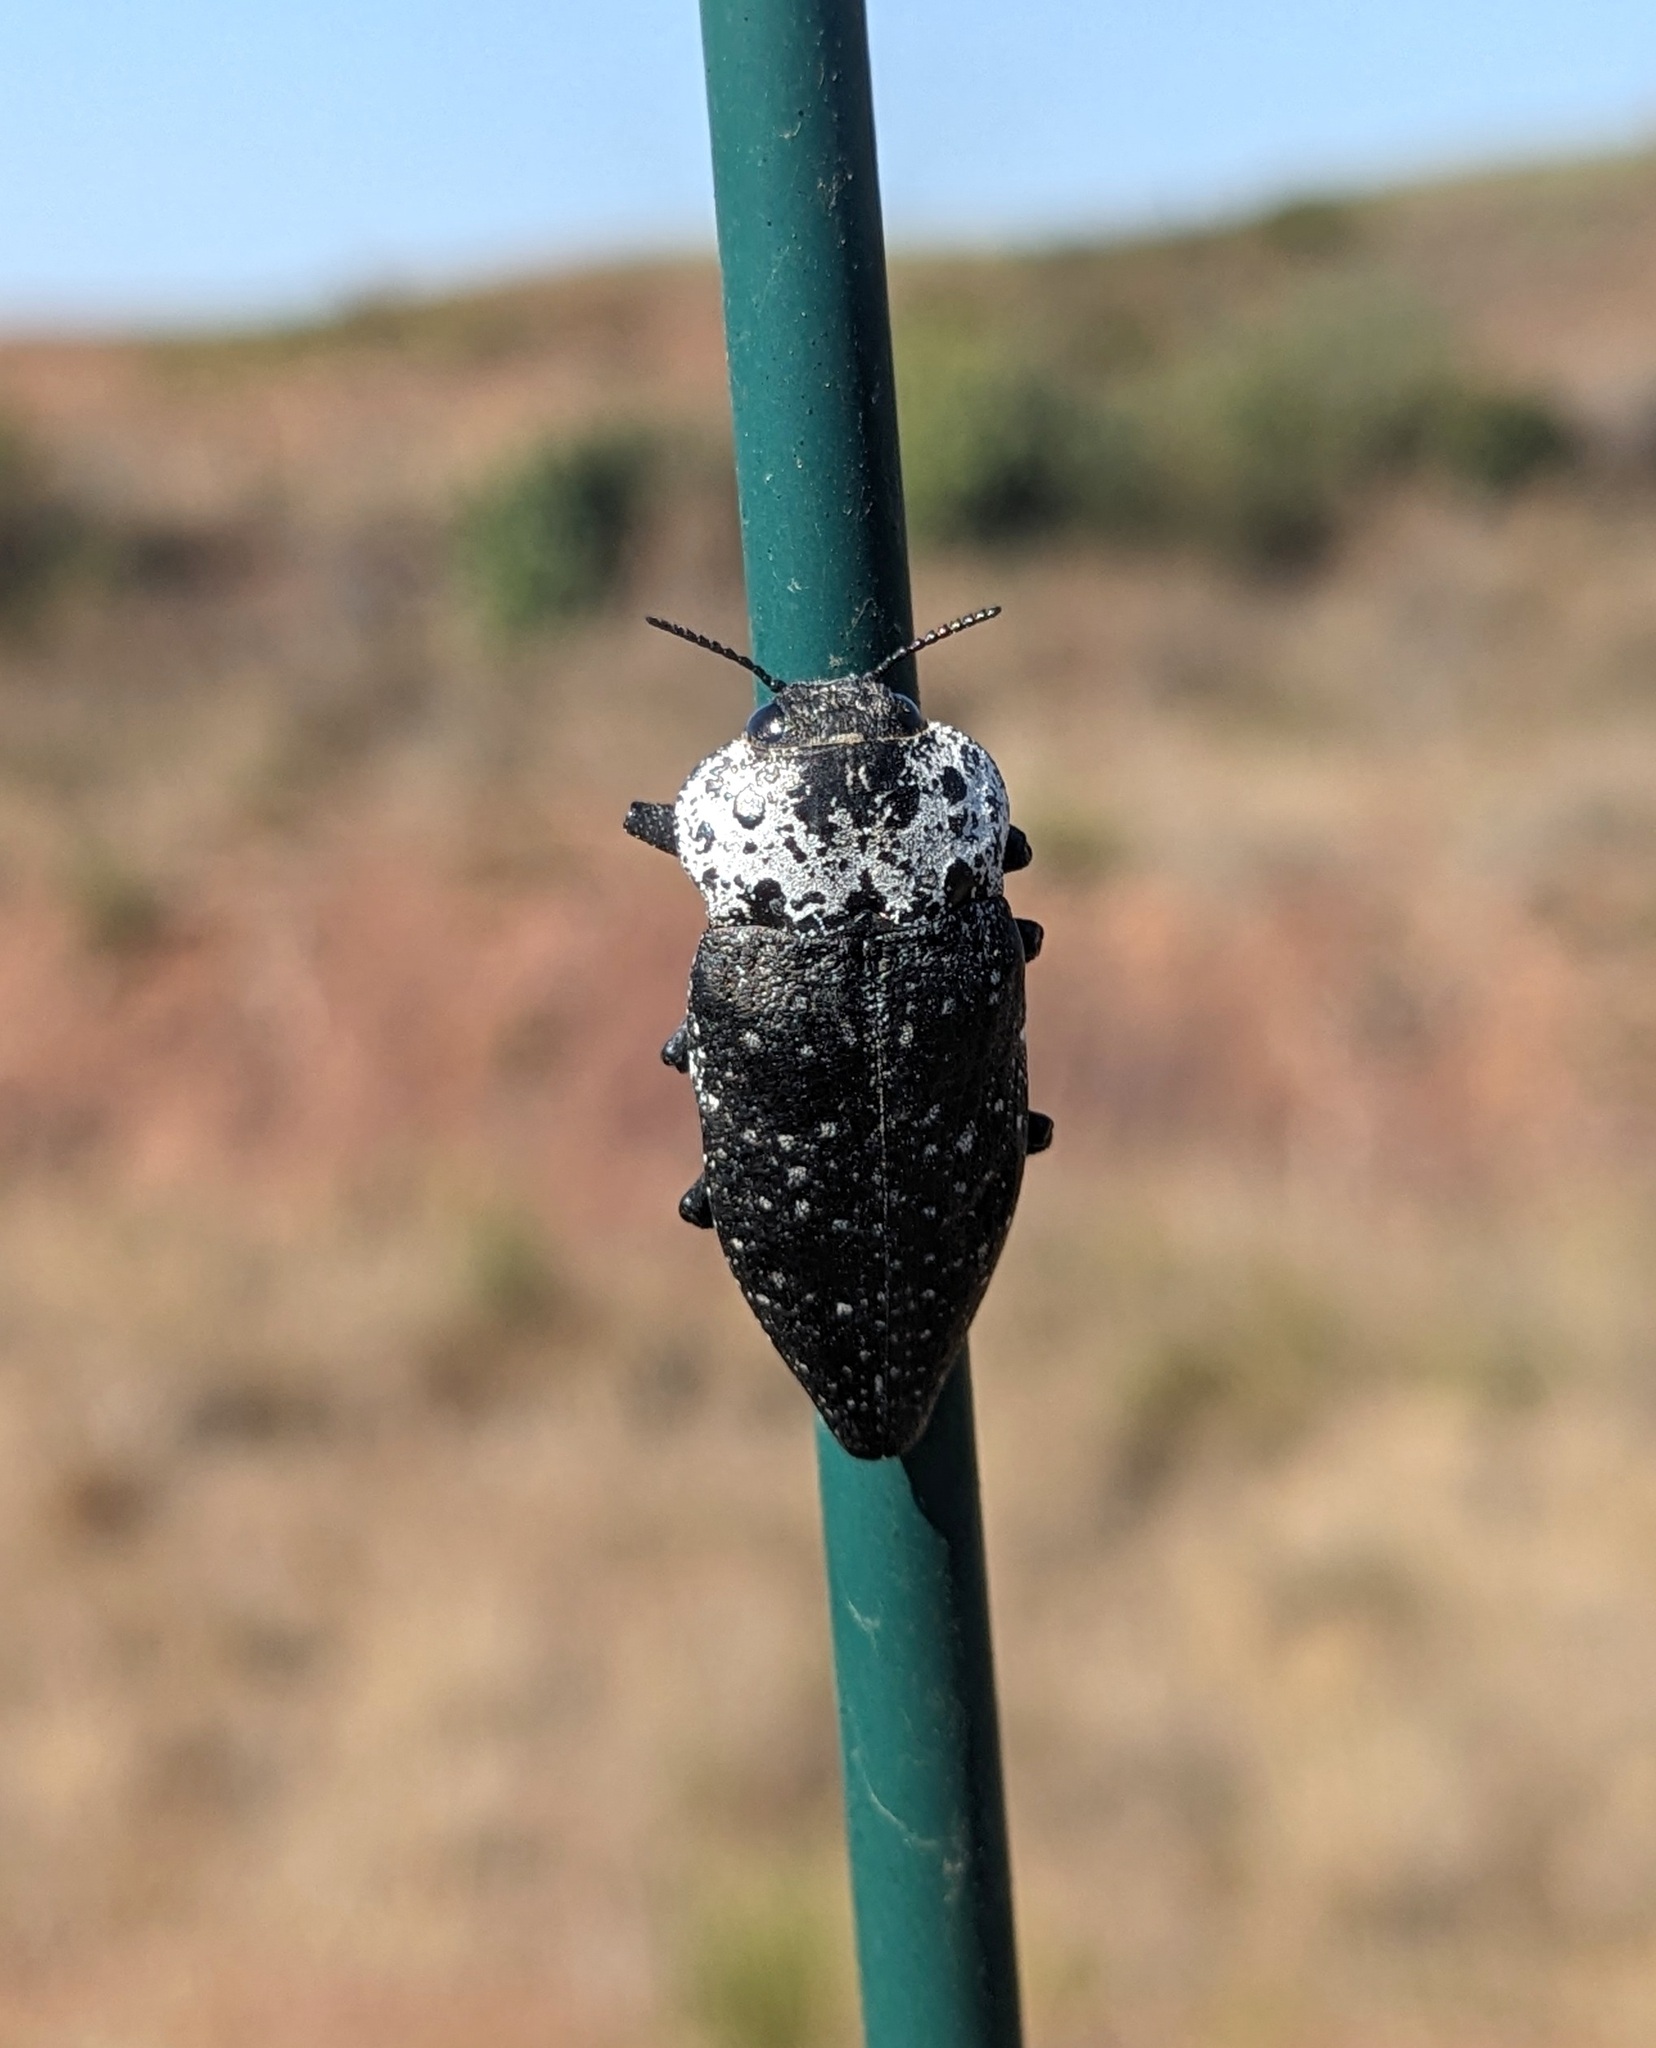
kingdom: Animalia
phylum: Arthropoda
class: Insecta
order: Coleoptera
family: Buprestidae
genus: Capnodis
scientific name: Capnodis tenebrionis
